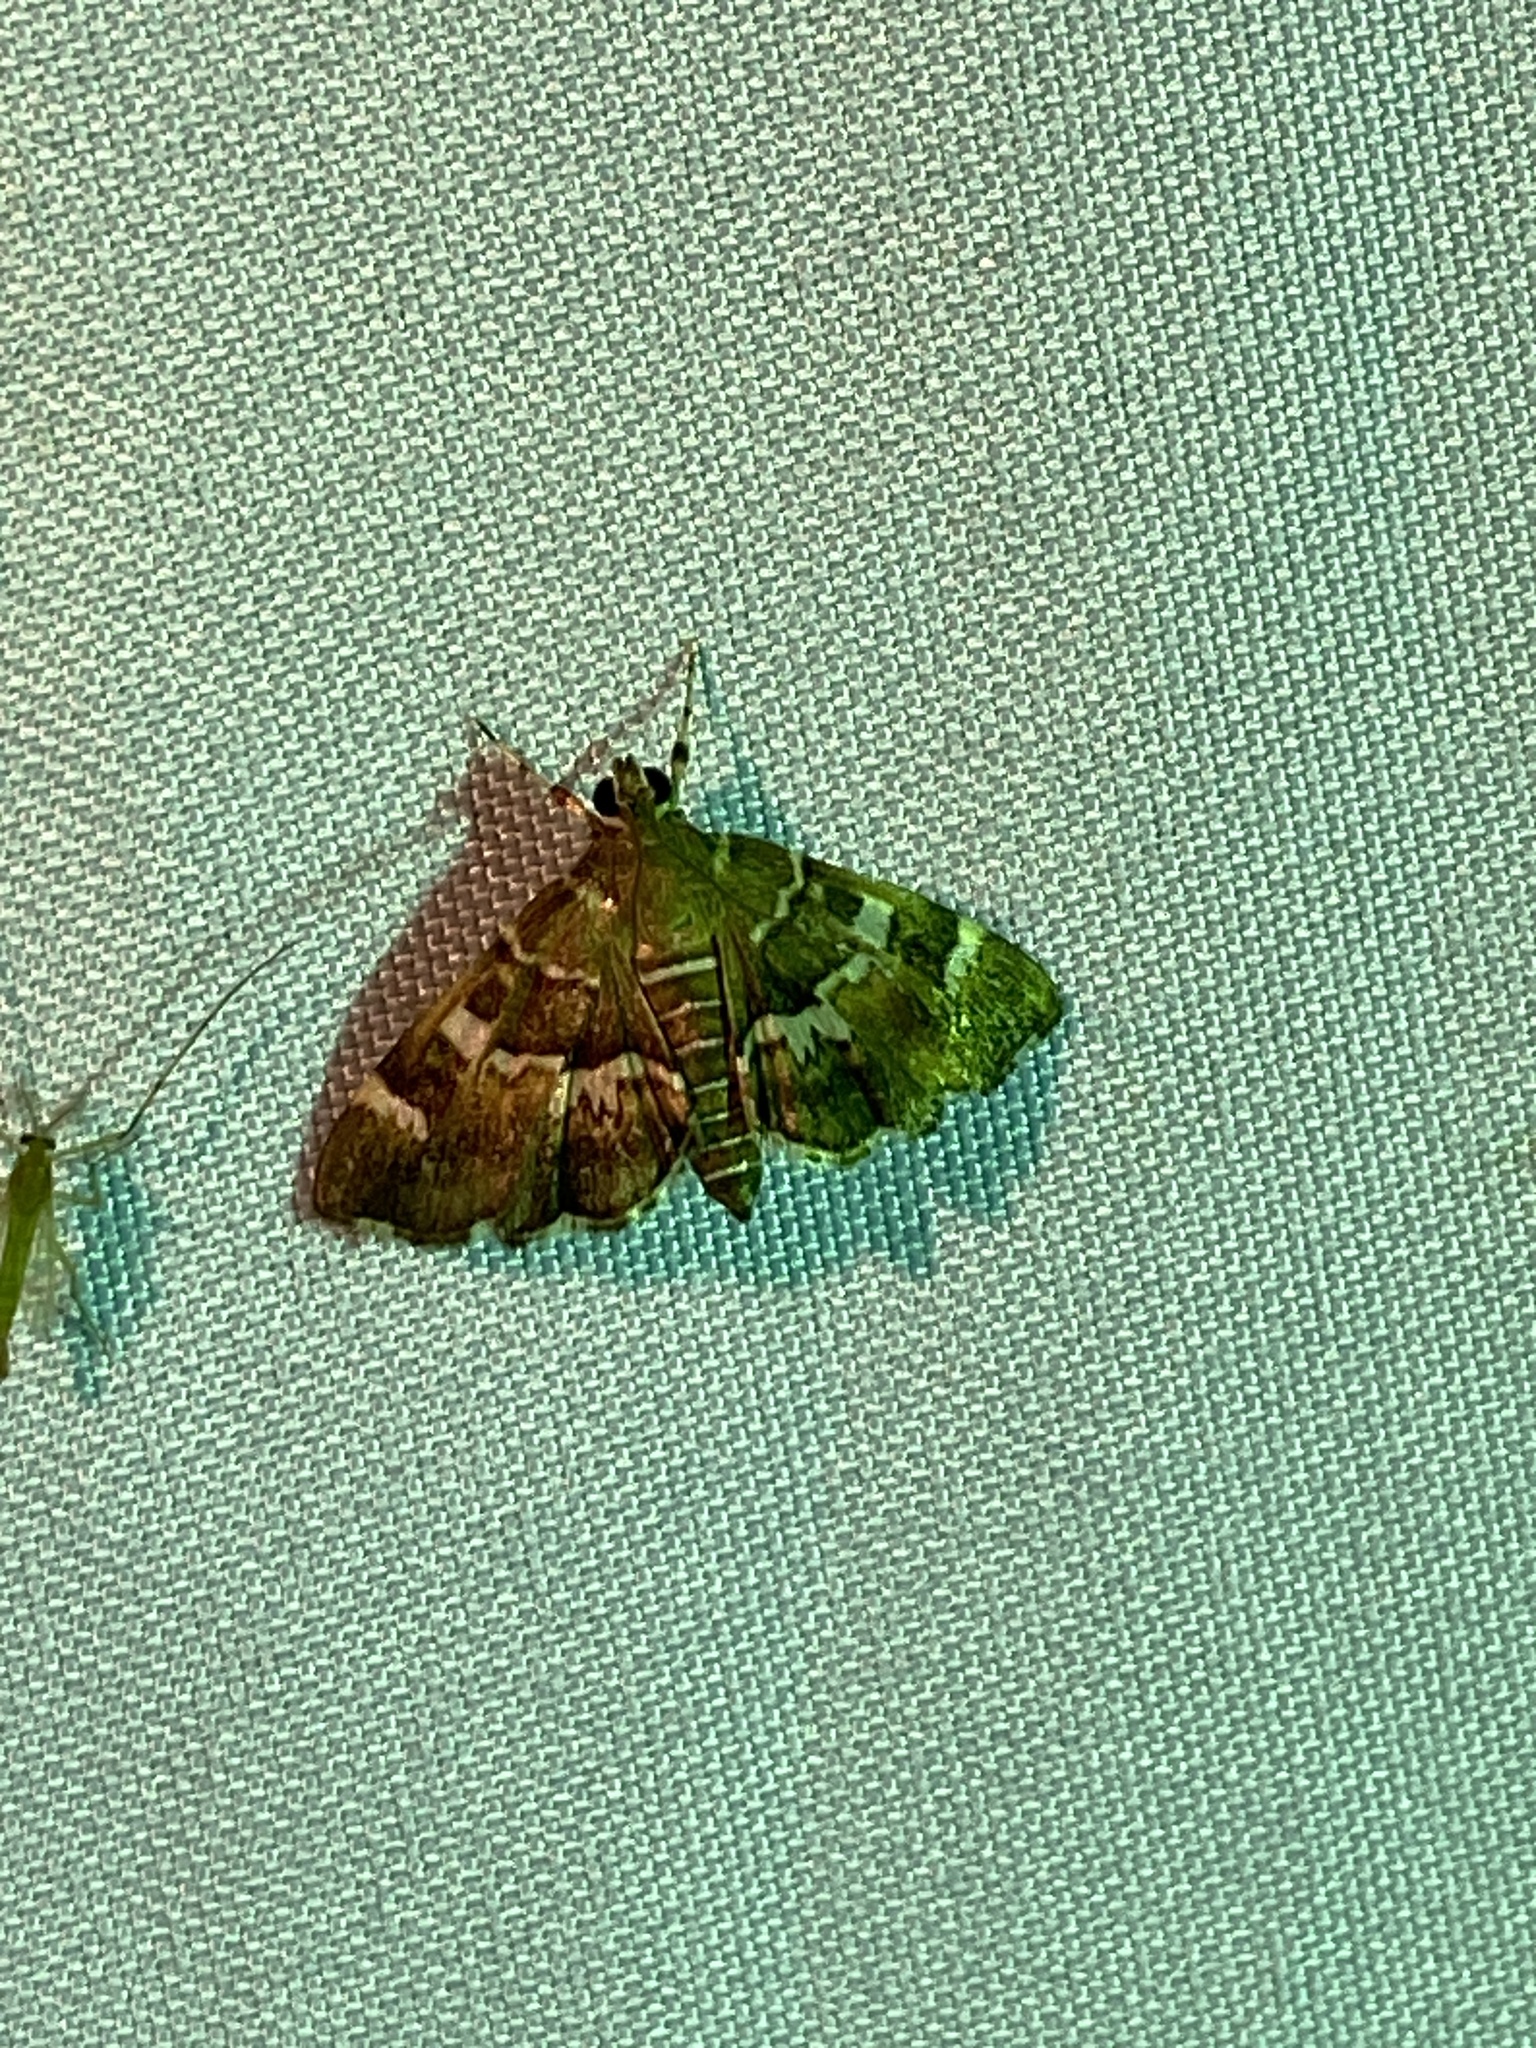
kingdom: Animalia
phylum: Arthropoda
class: Insecta
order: Lepidoptera
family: Crambidae
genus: Hymenia
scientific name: Hymenia perspectalis
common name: Spotted beet webworm
